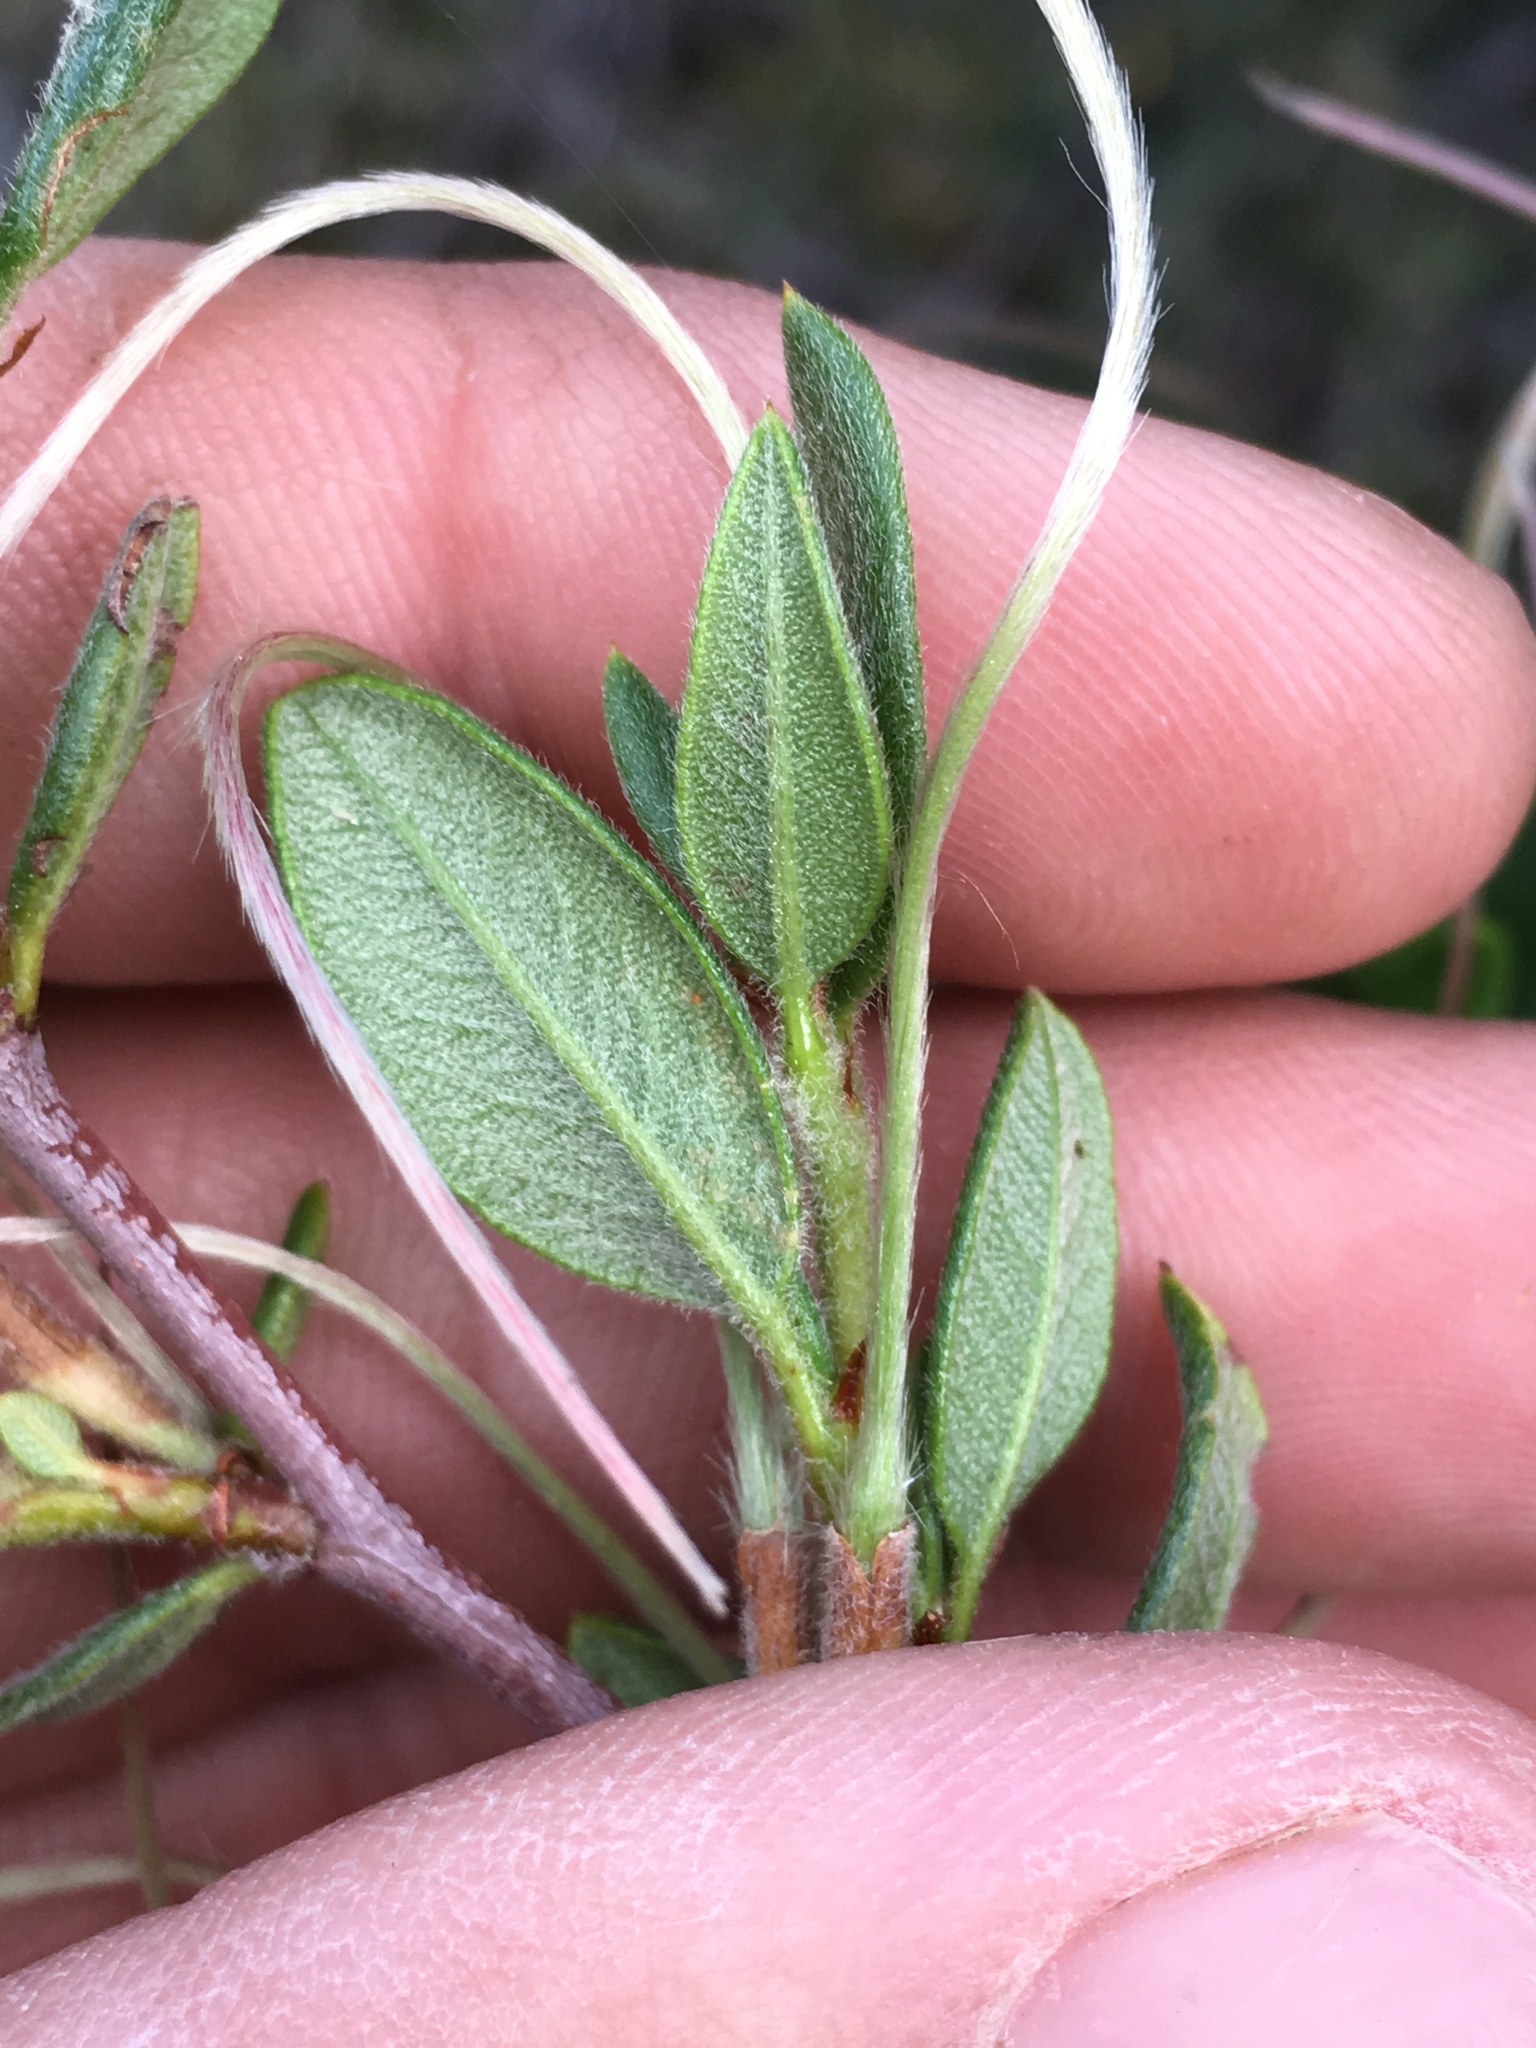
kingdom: Plantae
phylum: Tracheophyta
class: Magnoliopsida
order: Rosales
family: Rosaceae
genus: Cercocarpus
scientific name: Cercocarpus ledifolius
